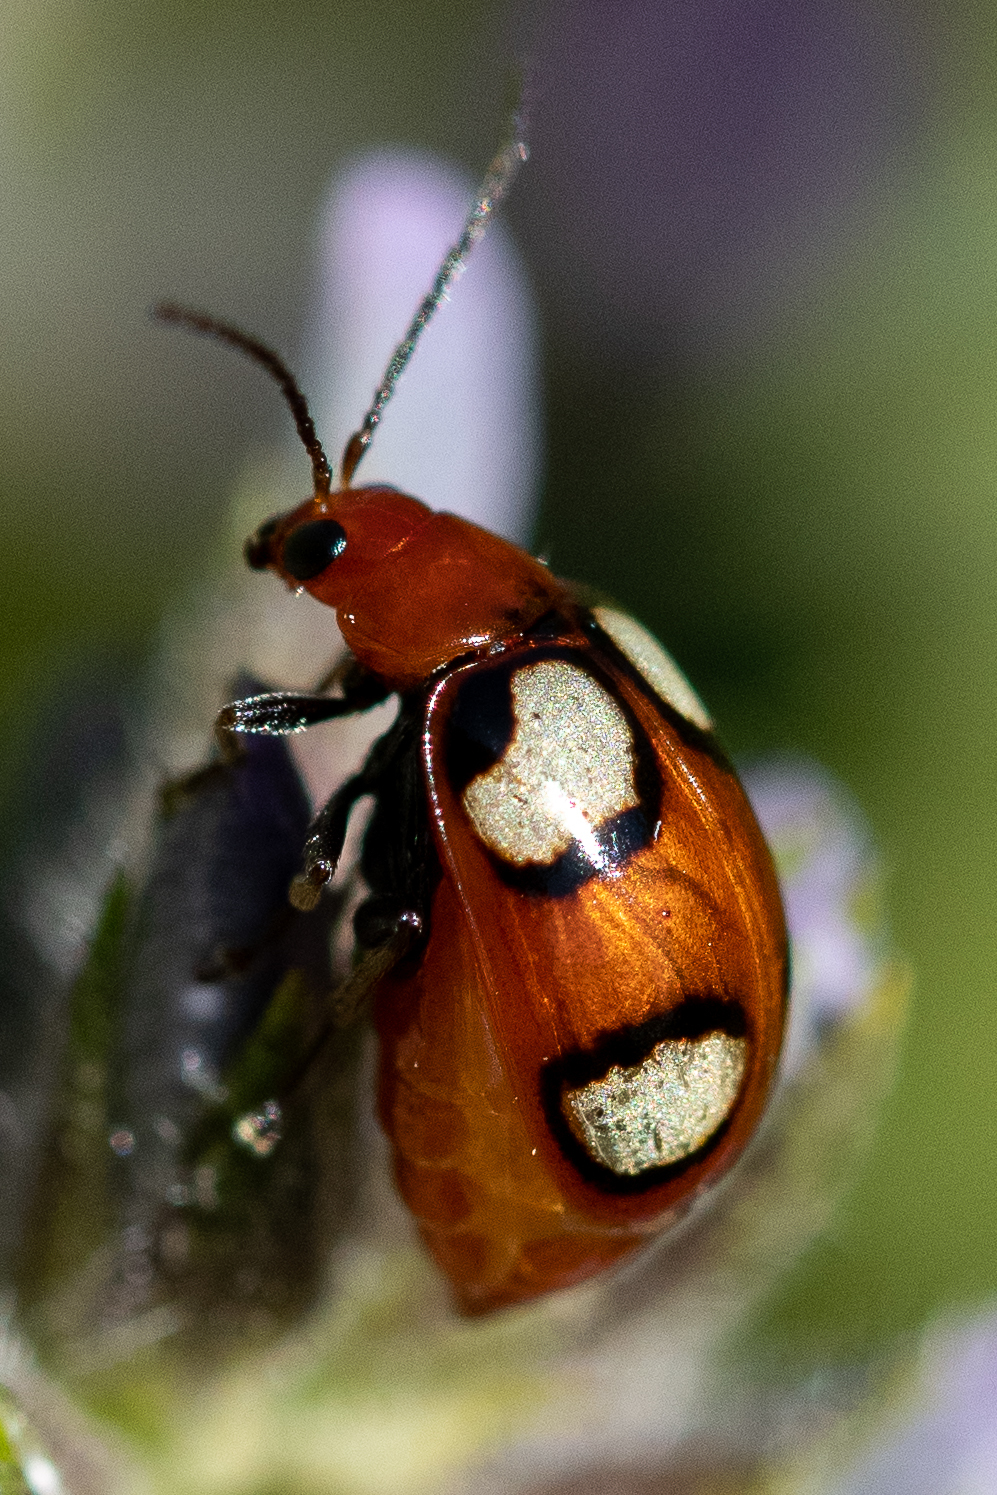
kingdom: Animalia
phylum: Arthropoda
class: Insecta
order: Coleoptera
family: Chrysomelidae
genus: Monolepta
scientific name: Monolepta
